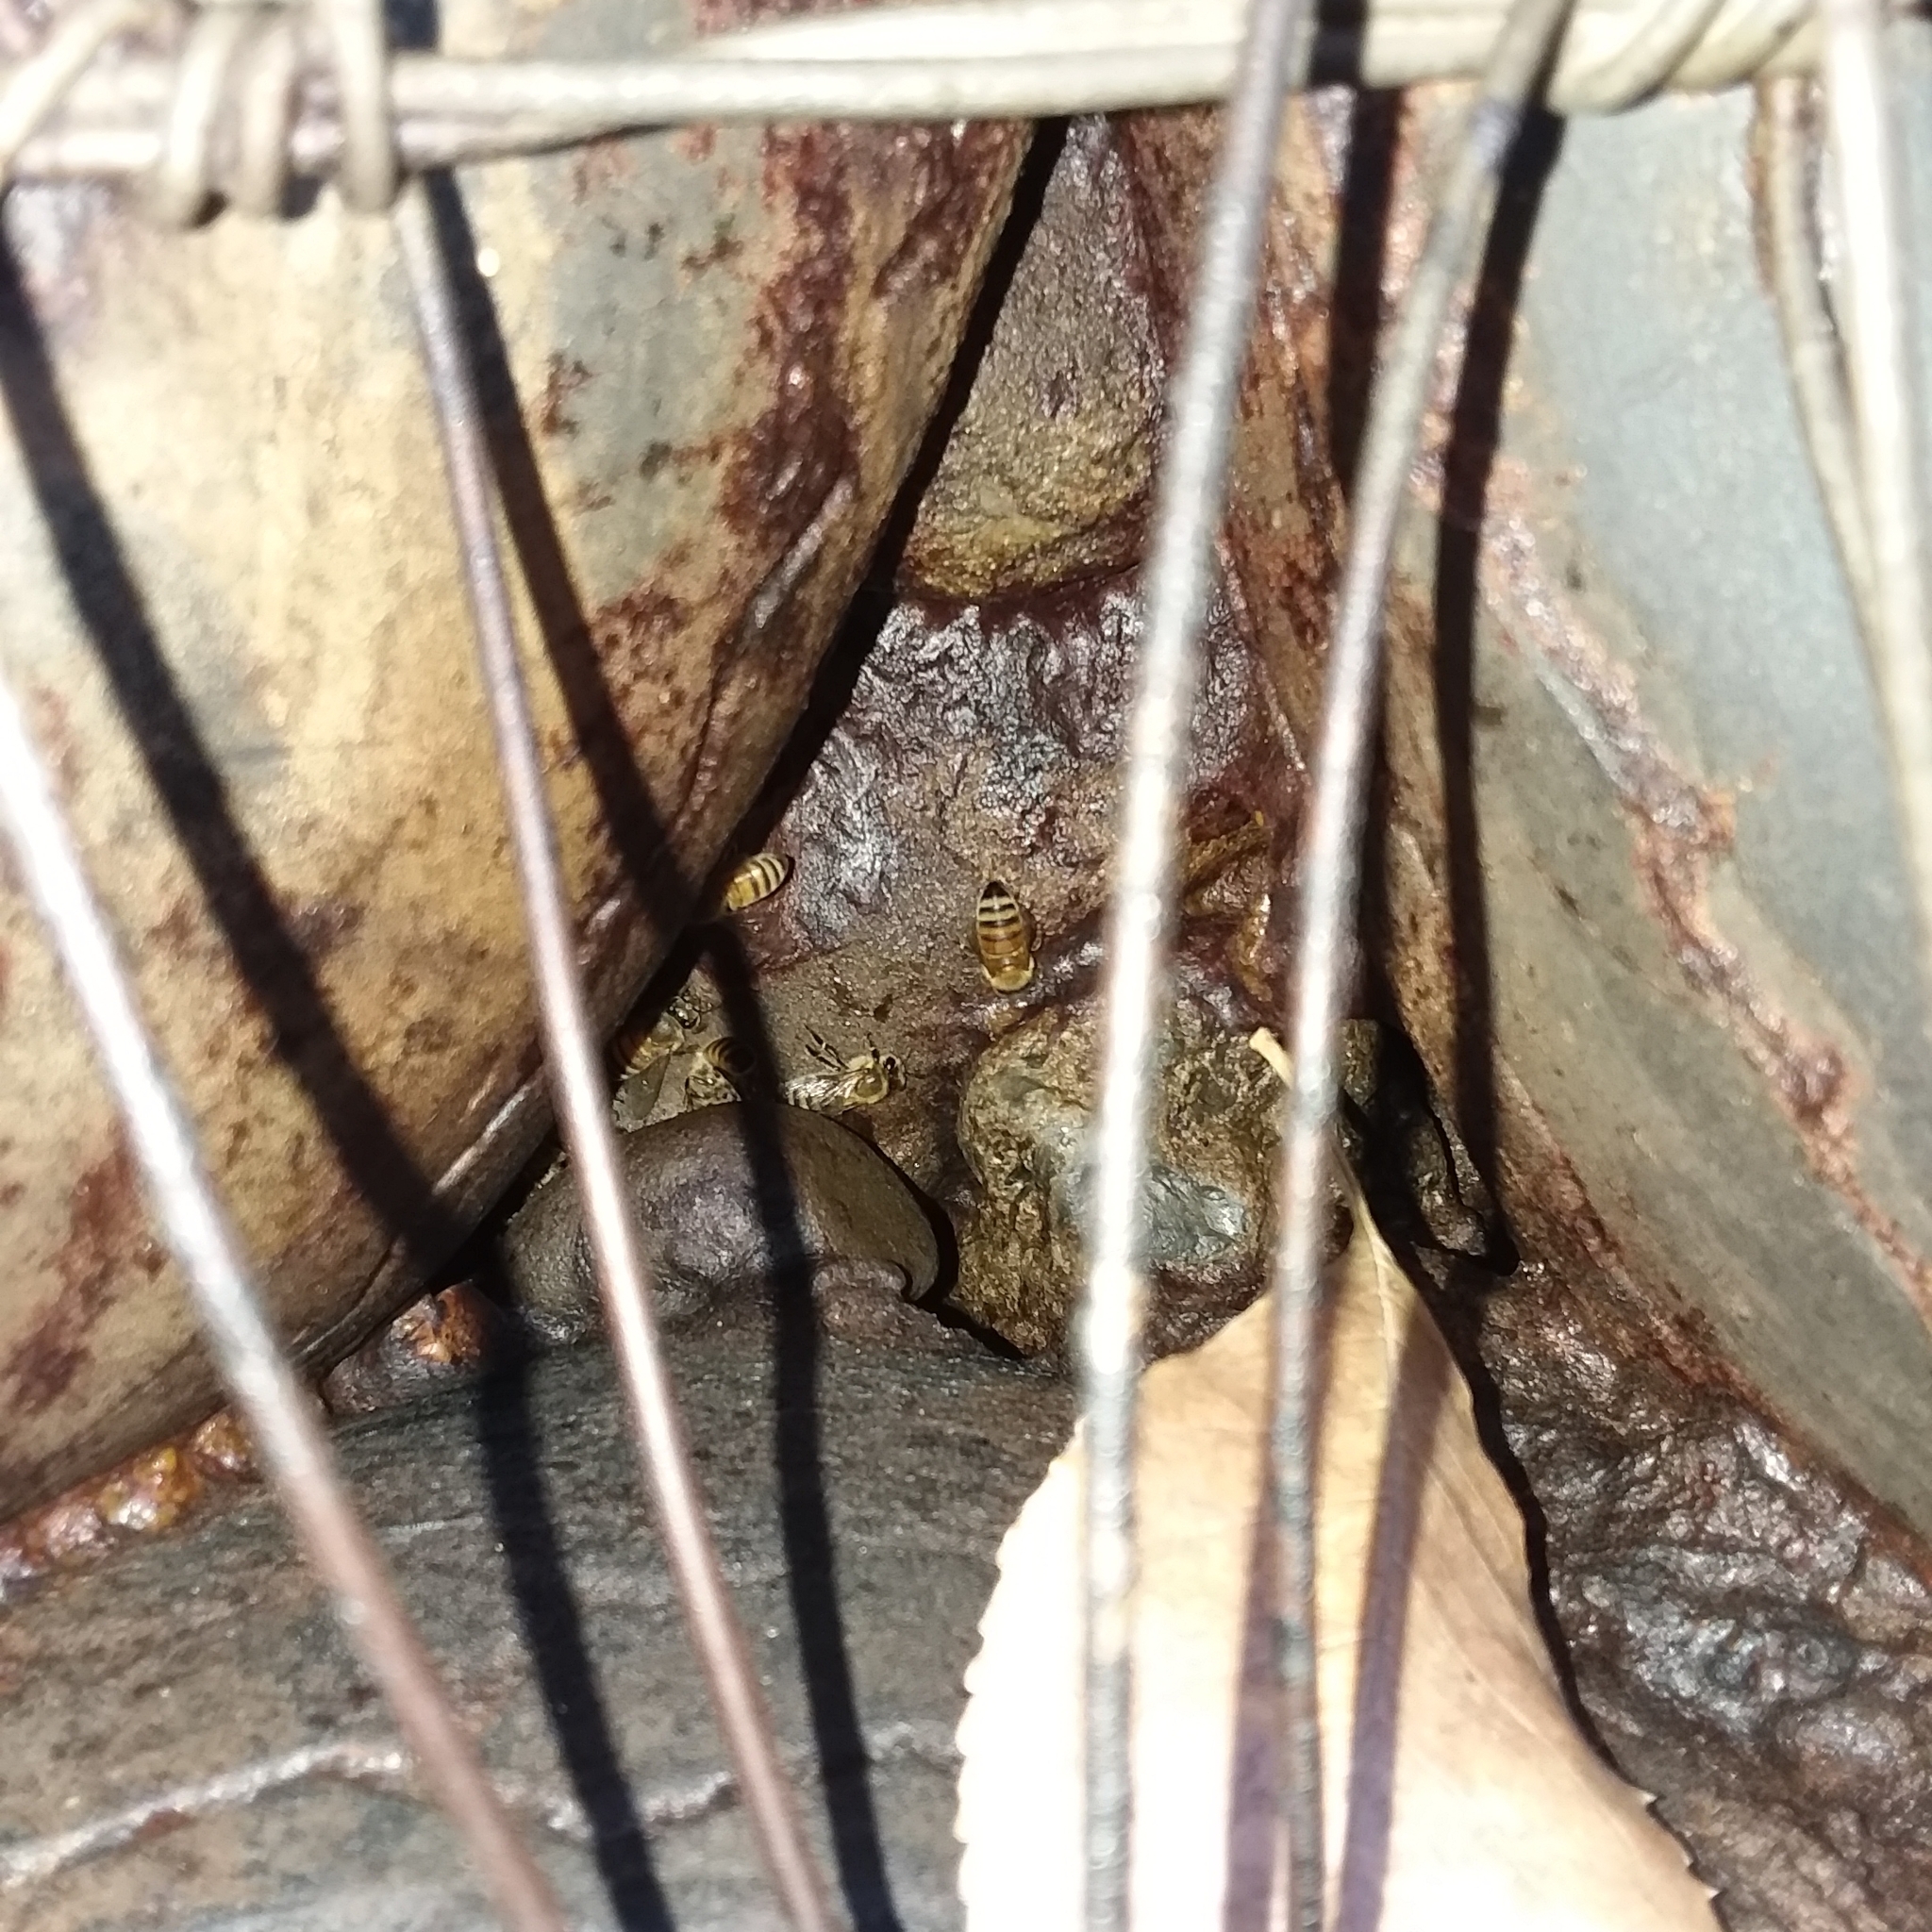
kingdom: Animalia
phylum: Arthropoda
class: Insecta
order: Hymenoptera
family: Apidae
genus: Apis
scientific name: Apis mellifera
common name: Honey bee
